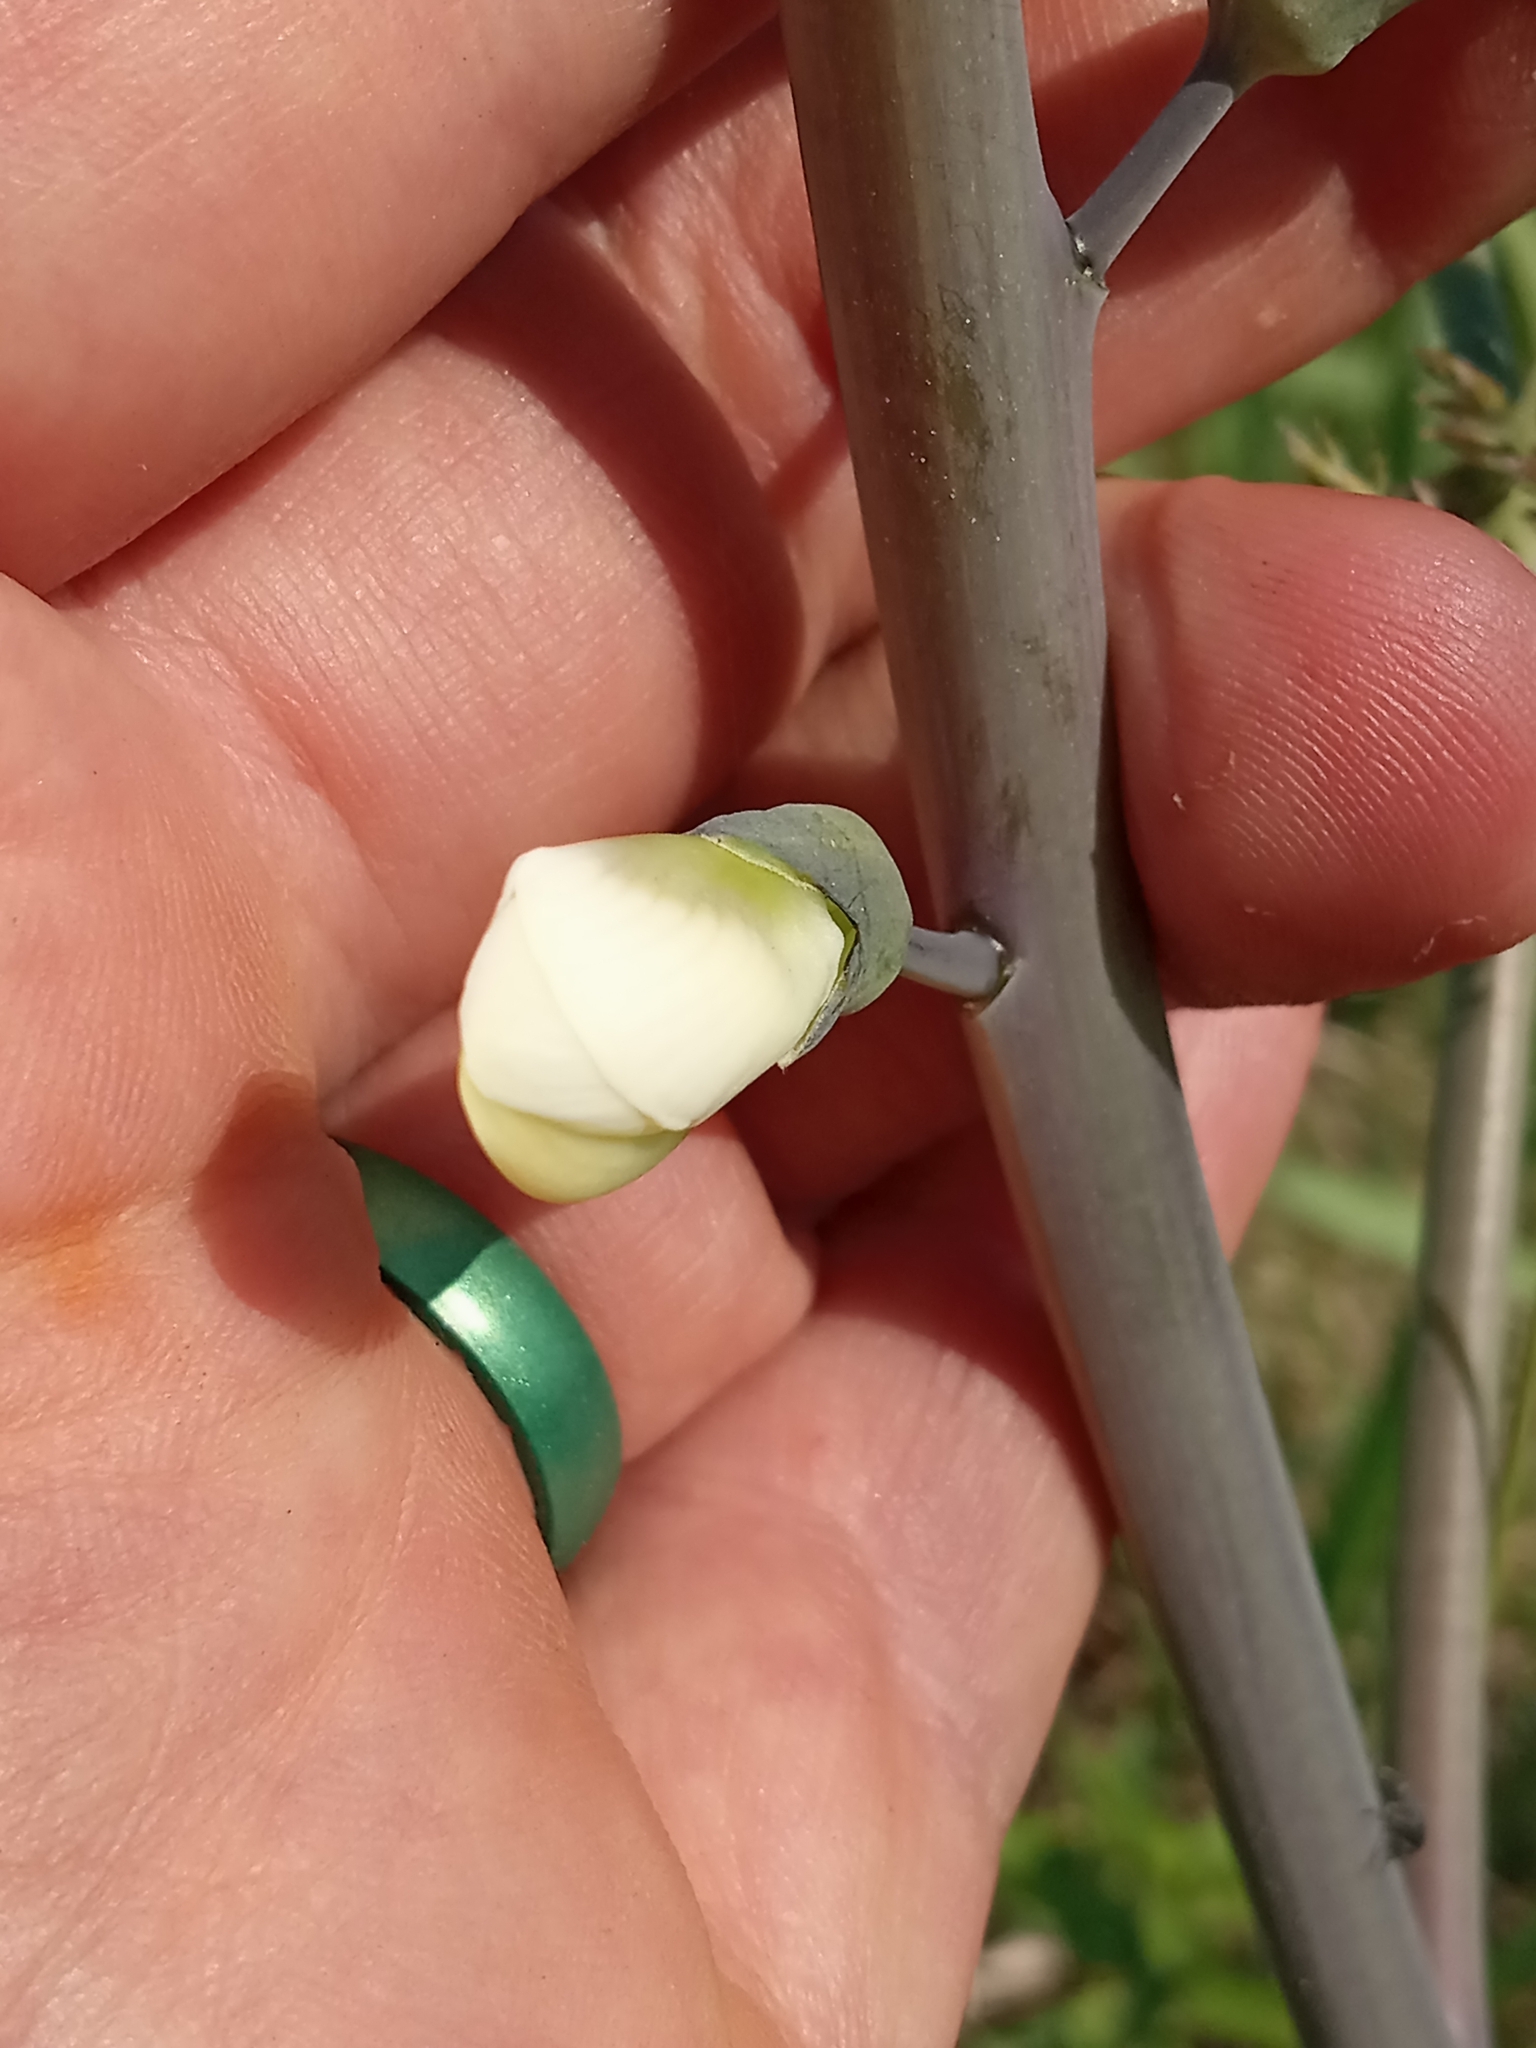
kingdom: Plantae
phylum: Tracheophyta
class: Magnoliopsida
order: Fabales
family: Fabaceae
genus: Baptisia
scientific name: Baptisia alba
